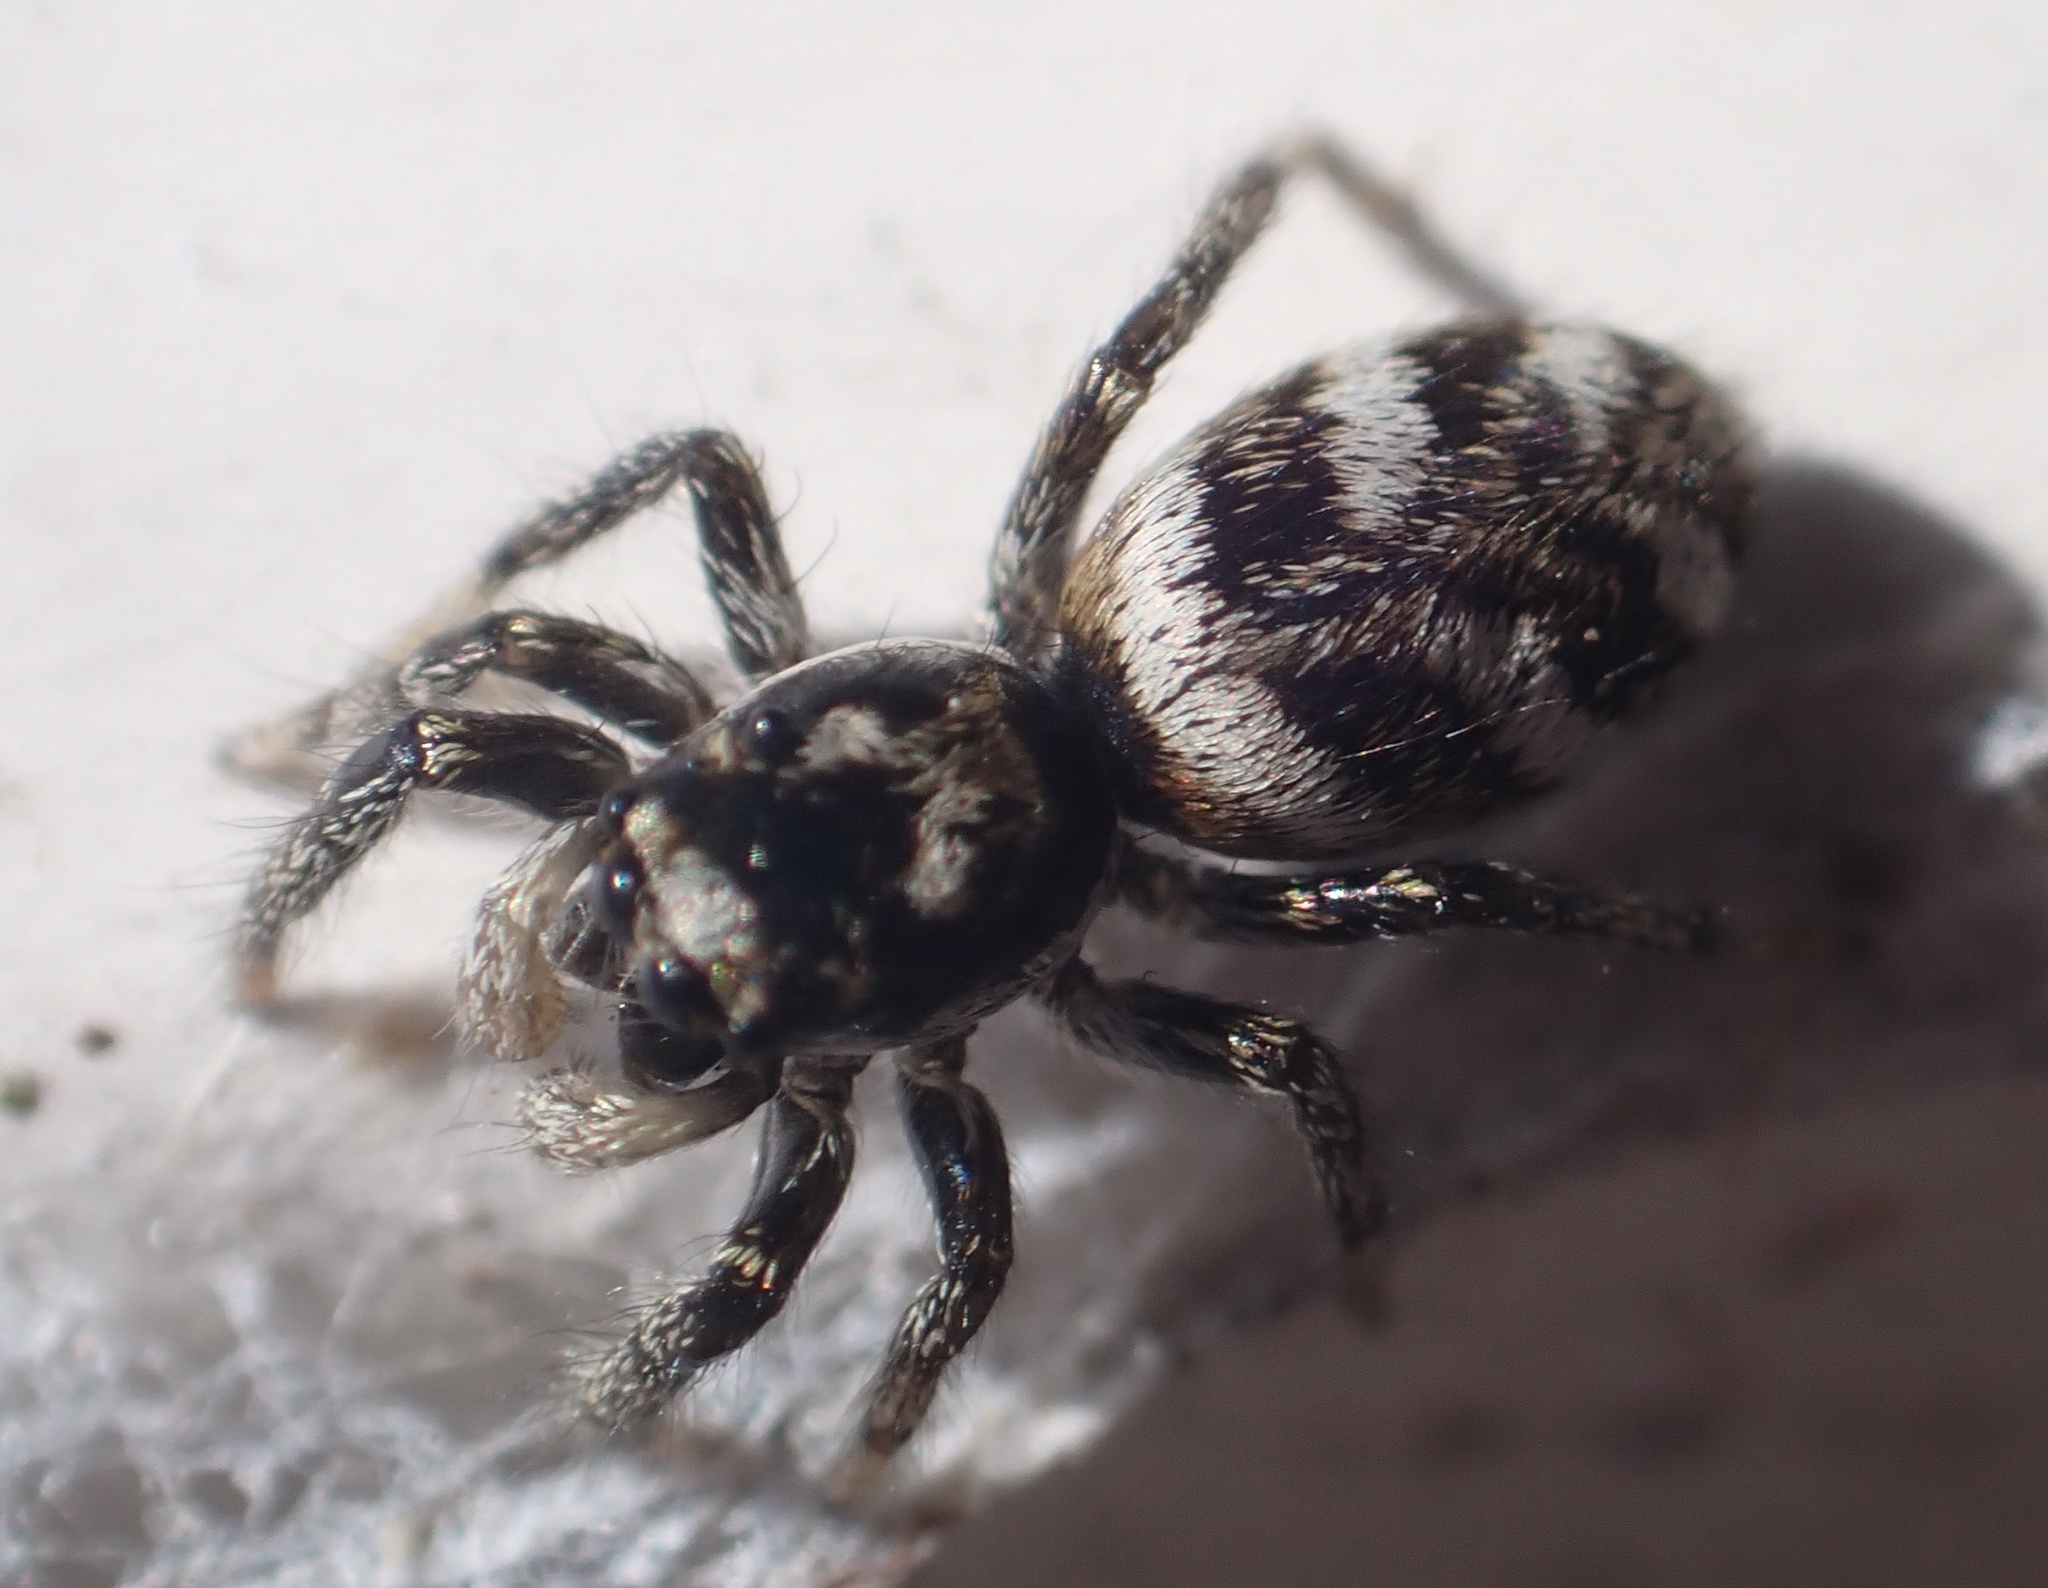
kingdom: Animalia
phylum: Arthropoda
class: Arachnida
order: Araneae
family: Salticidae
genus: Salticus
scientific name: Salticus scenicus
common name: Zebra jumper
